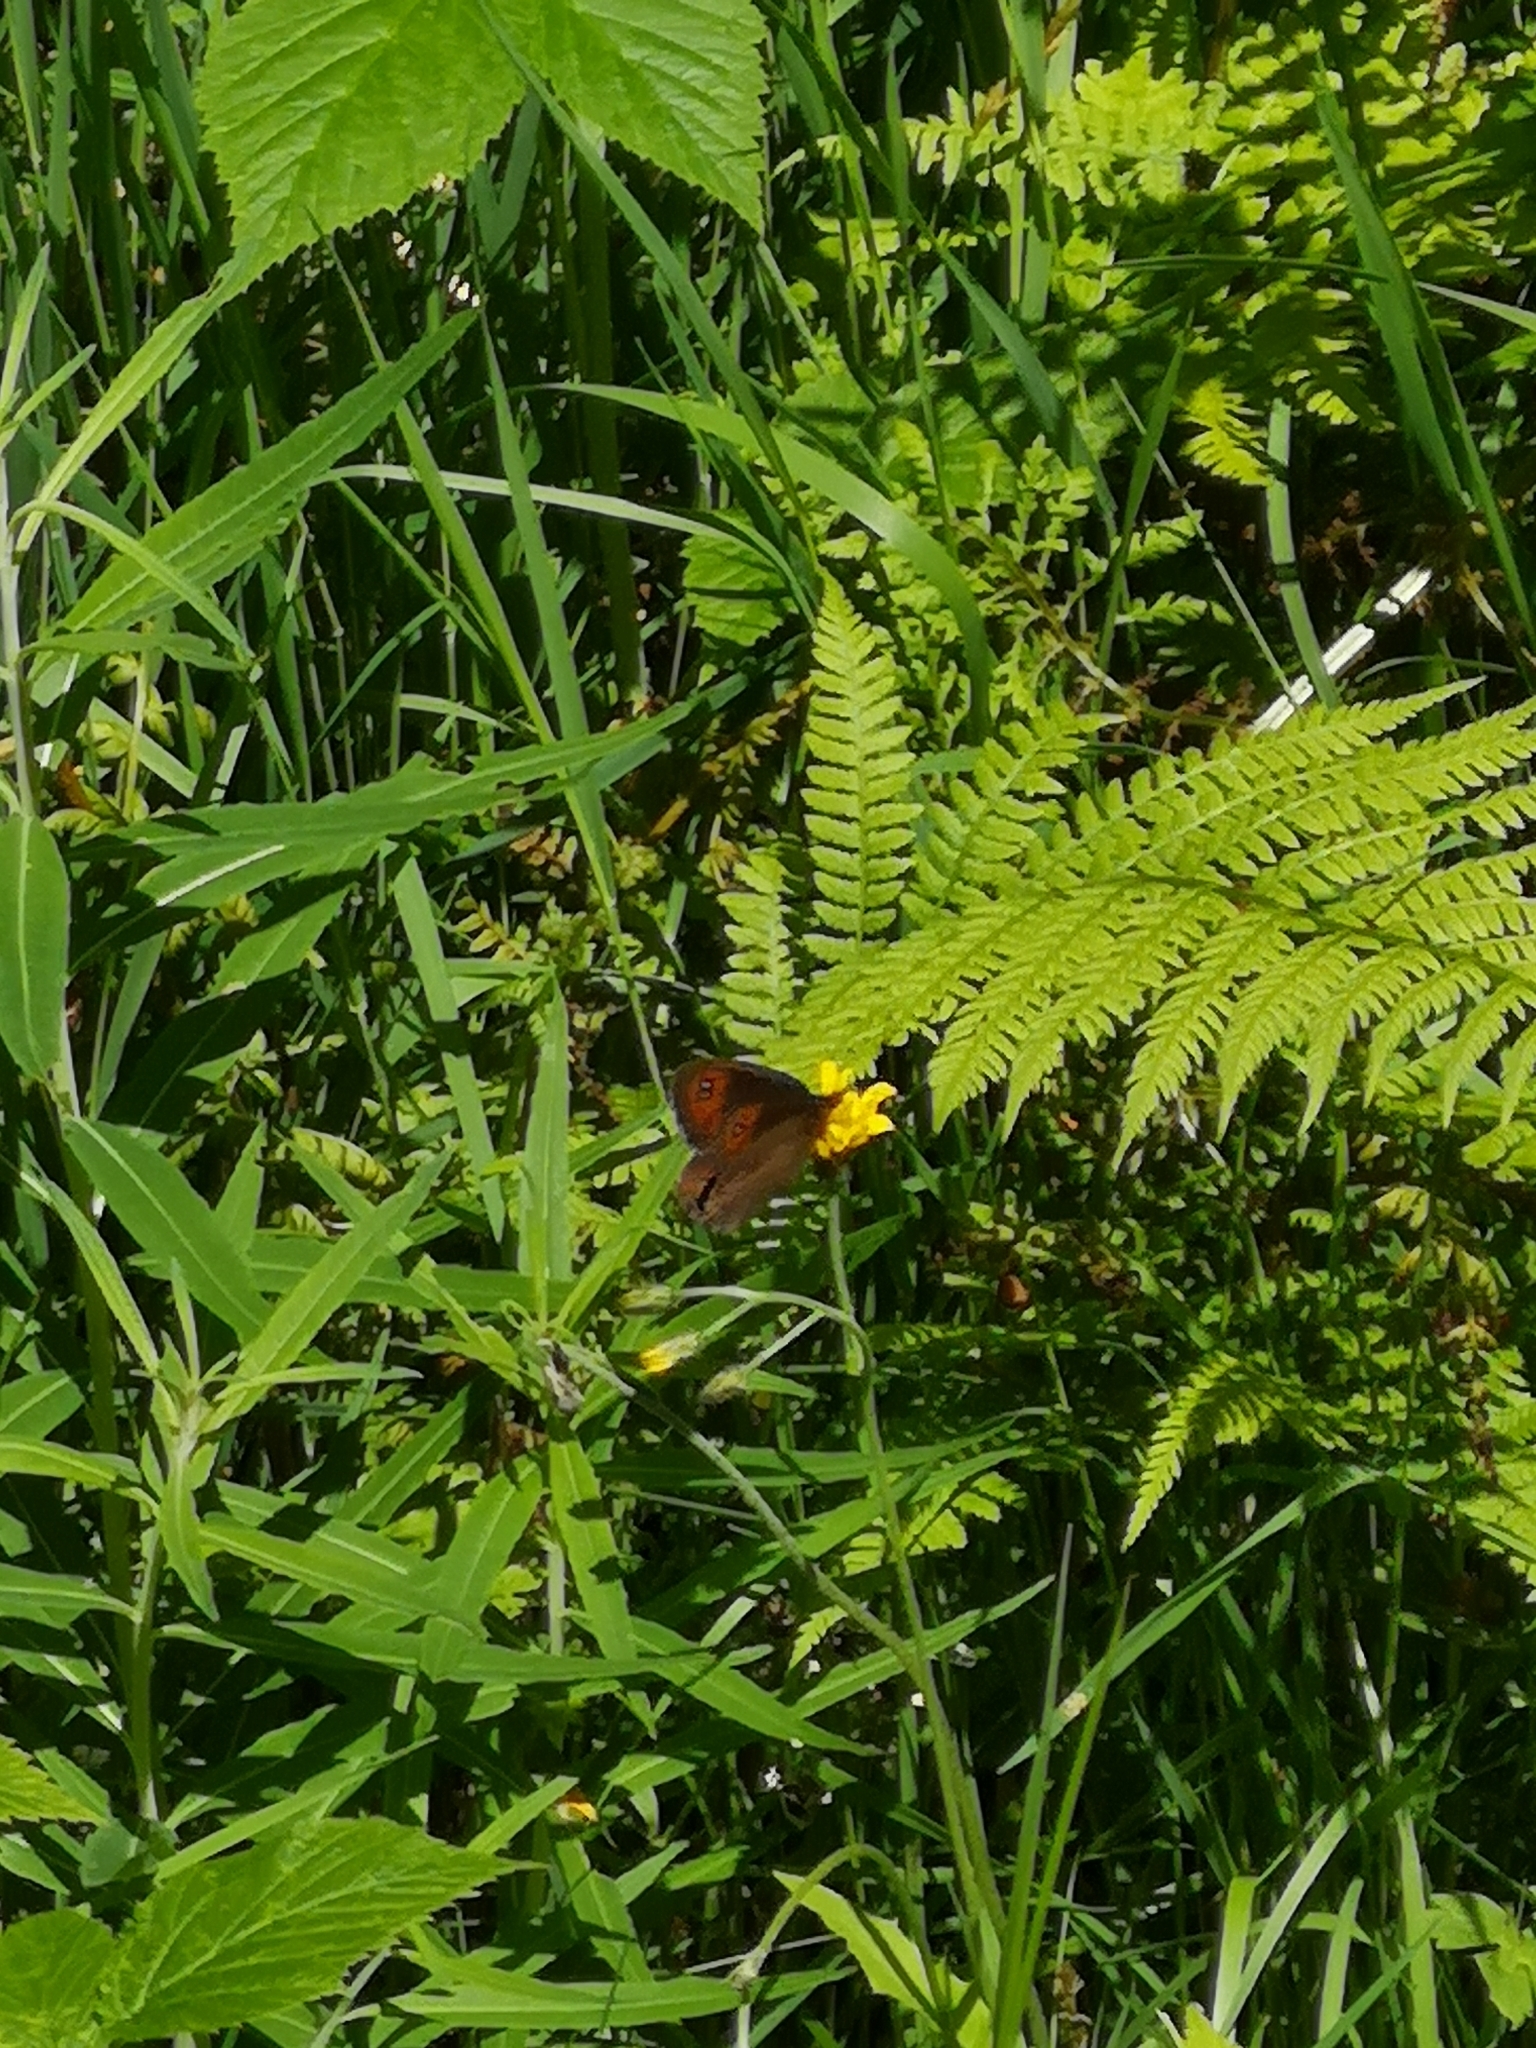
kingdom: Animalia
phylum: Arthropoda
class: Insecta
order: Lepidoptera
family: Nymphalidae
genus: Erebia
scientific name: Erebia meolans
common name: Piedmont ringlet
